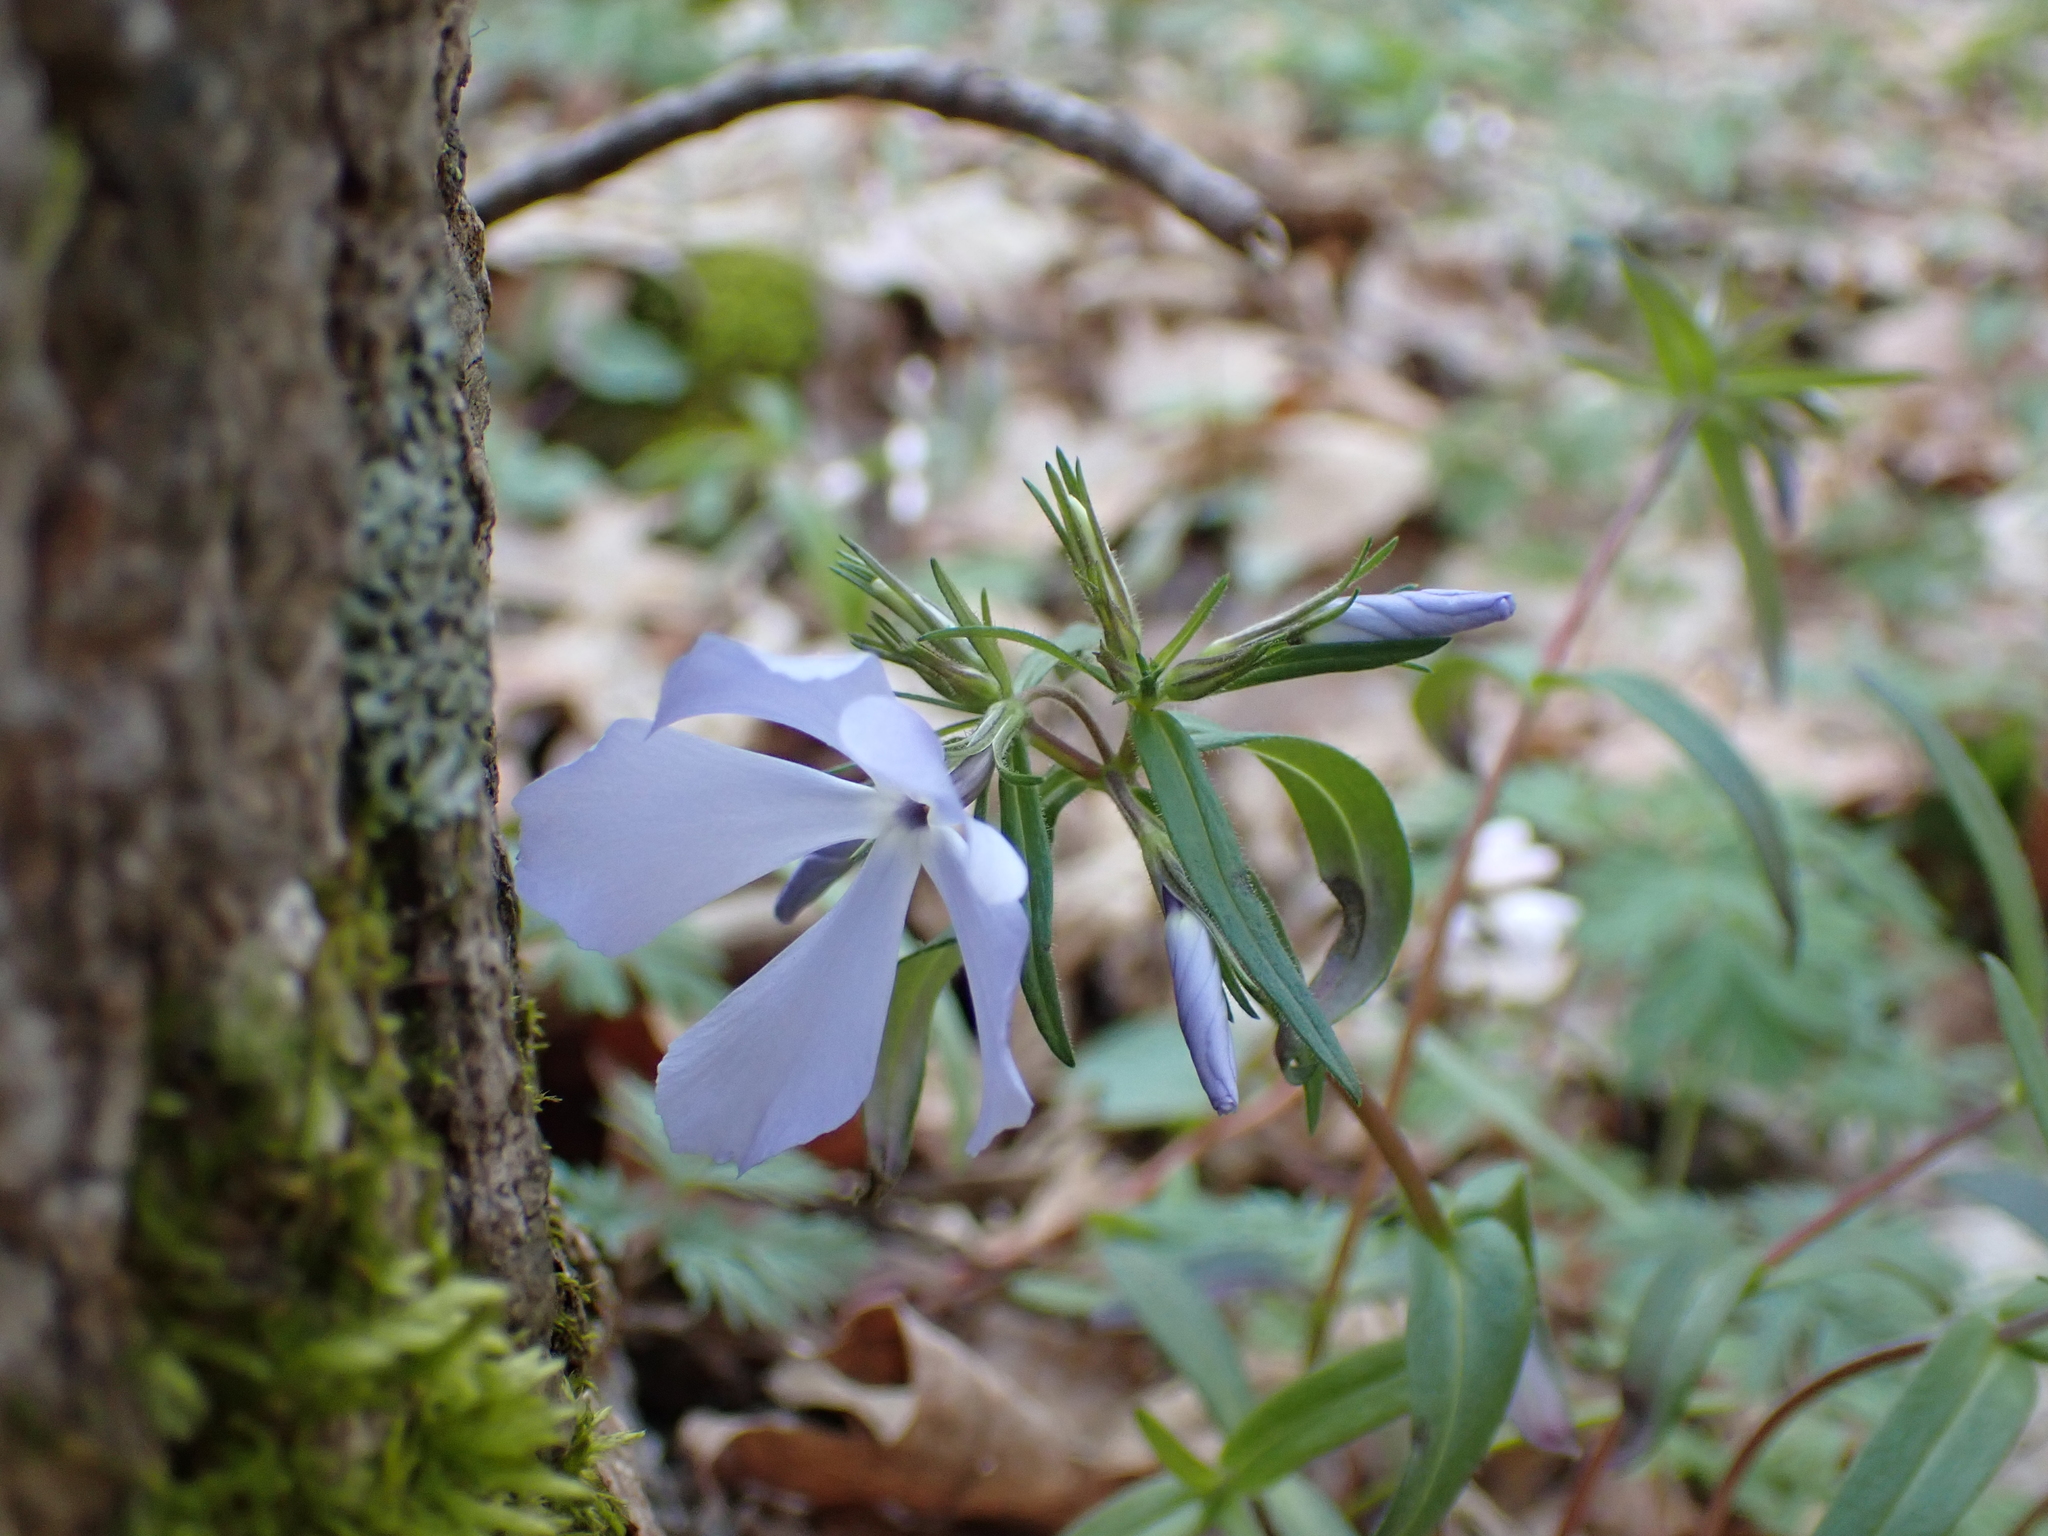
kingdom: Plantae
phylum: Tracheophyta
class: Magnoliopsida
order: Ericales
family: Polemoniaceae
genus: Phlox
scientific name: Phlox divaricata
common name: Blue phlox
